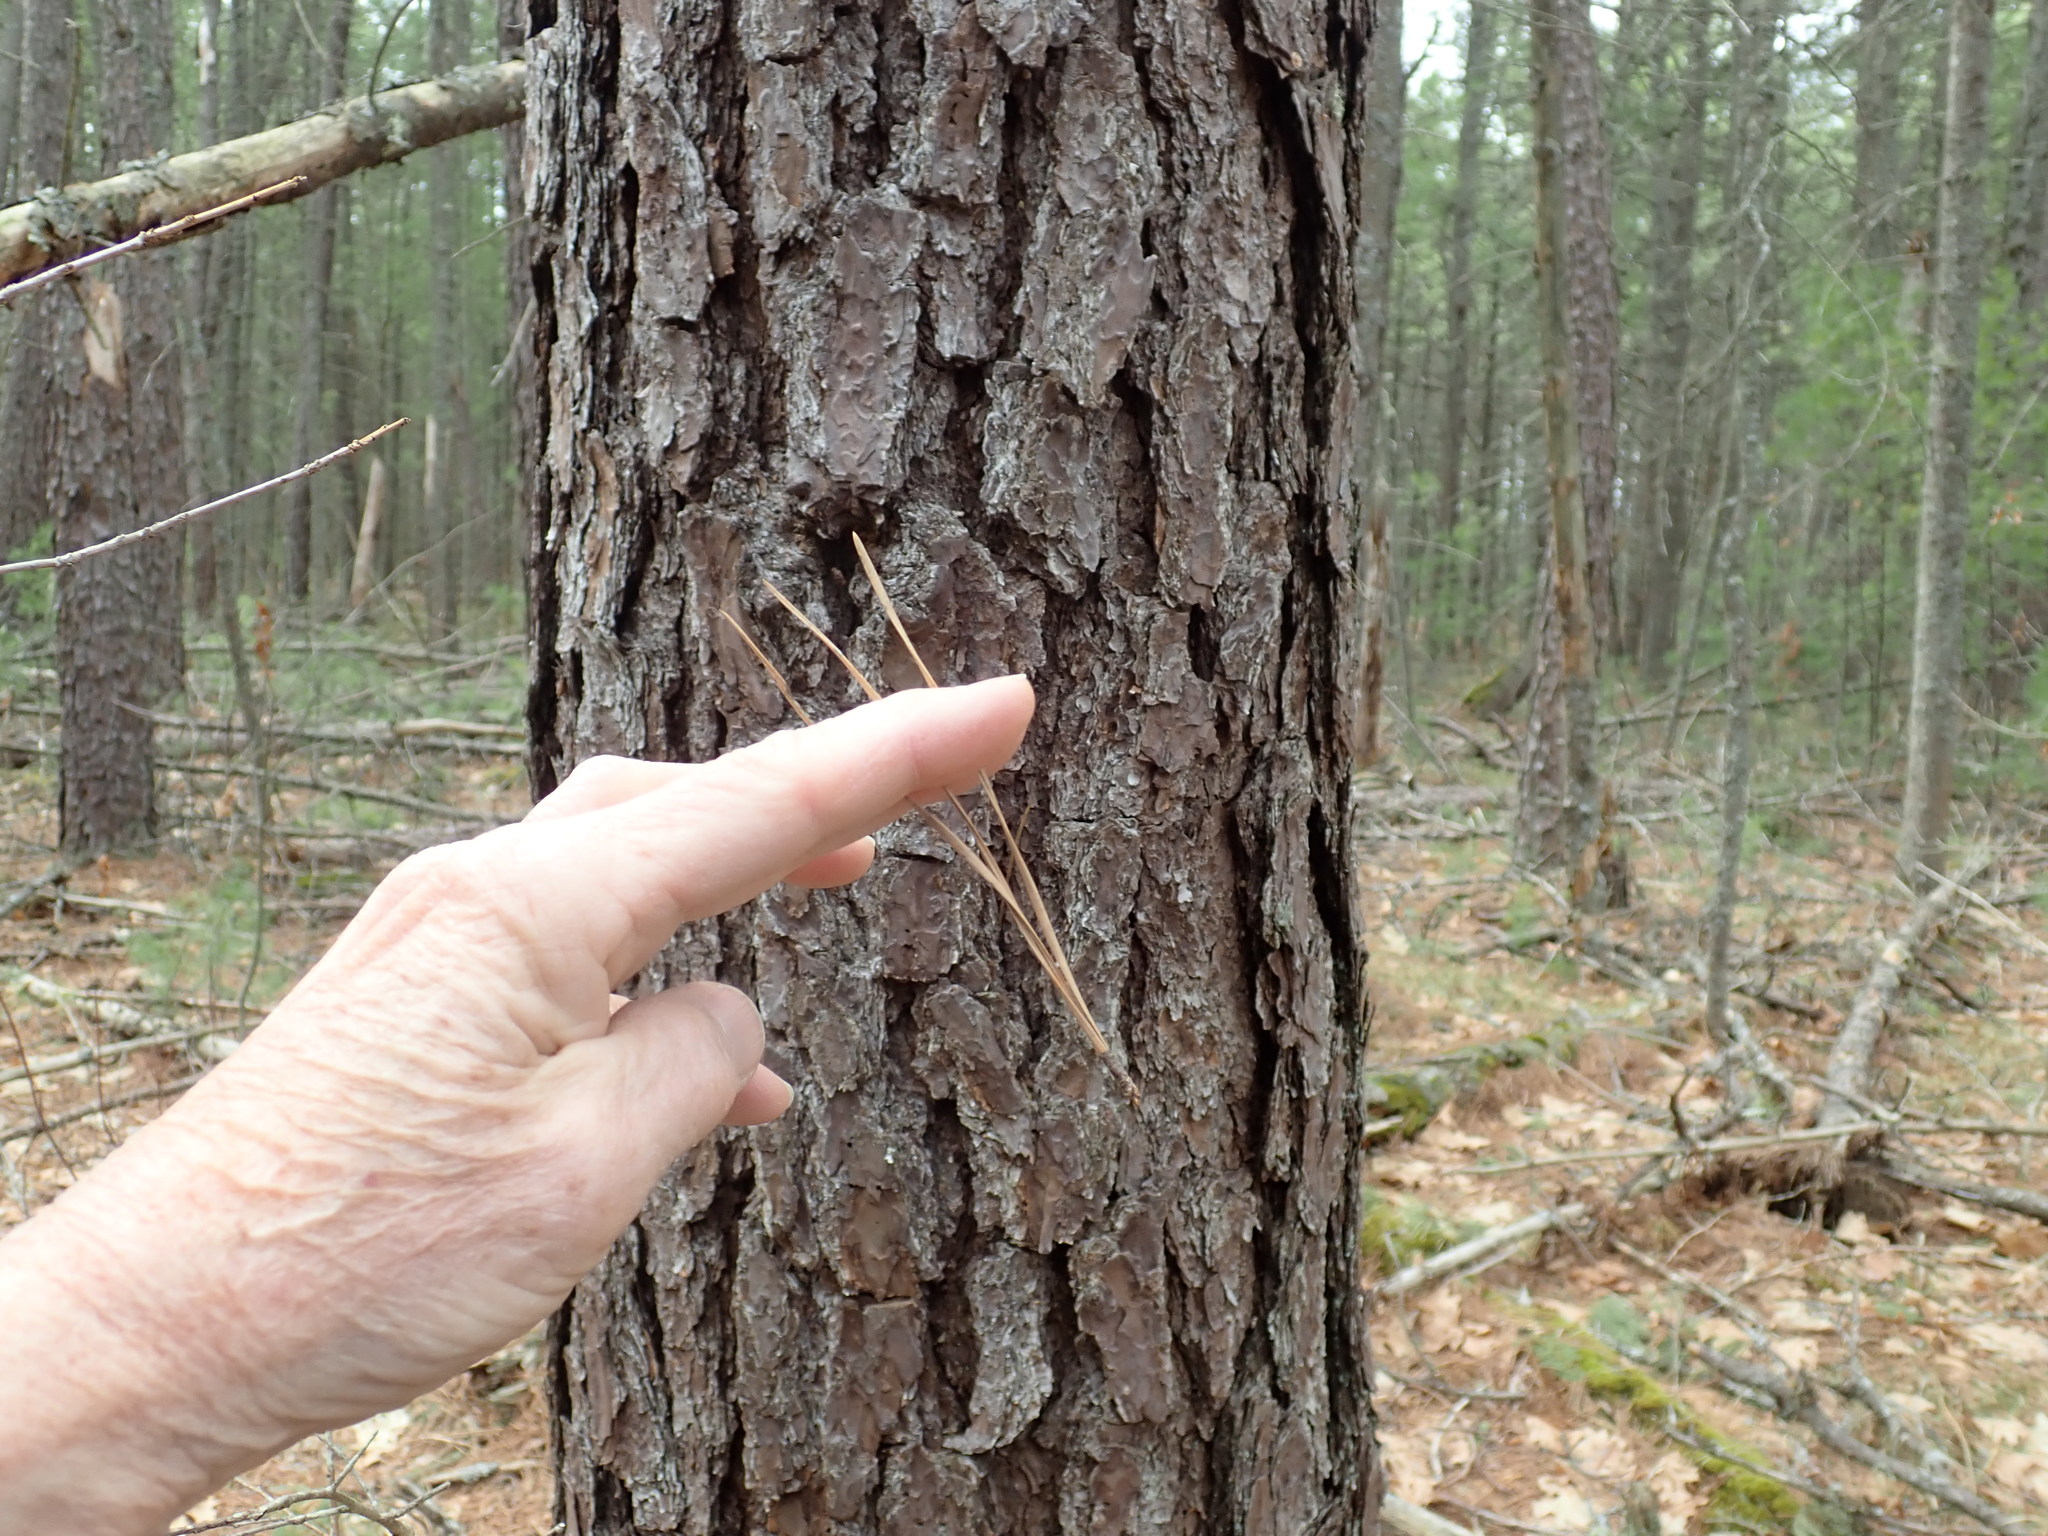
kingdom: Plantae
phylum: Tracheophyta
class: Pinopsida
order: Pinales
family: Pinaceae
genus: Pinus
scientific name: Pinus rigida
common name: Pitch pine
